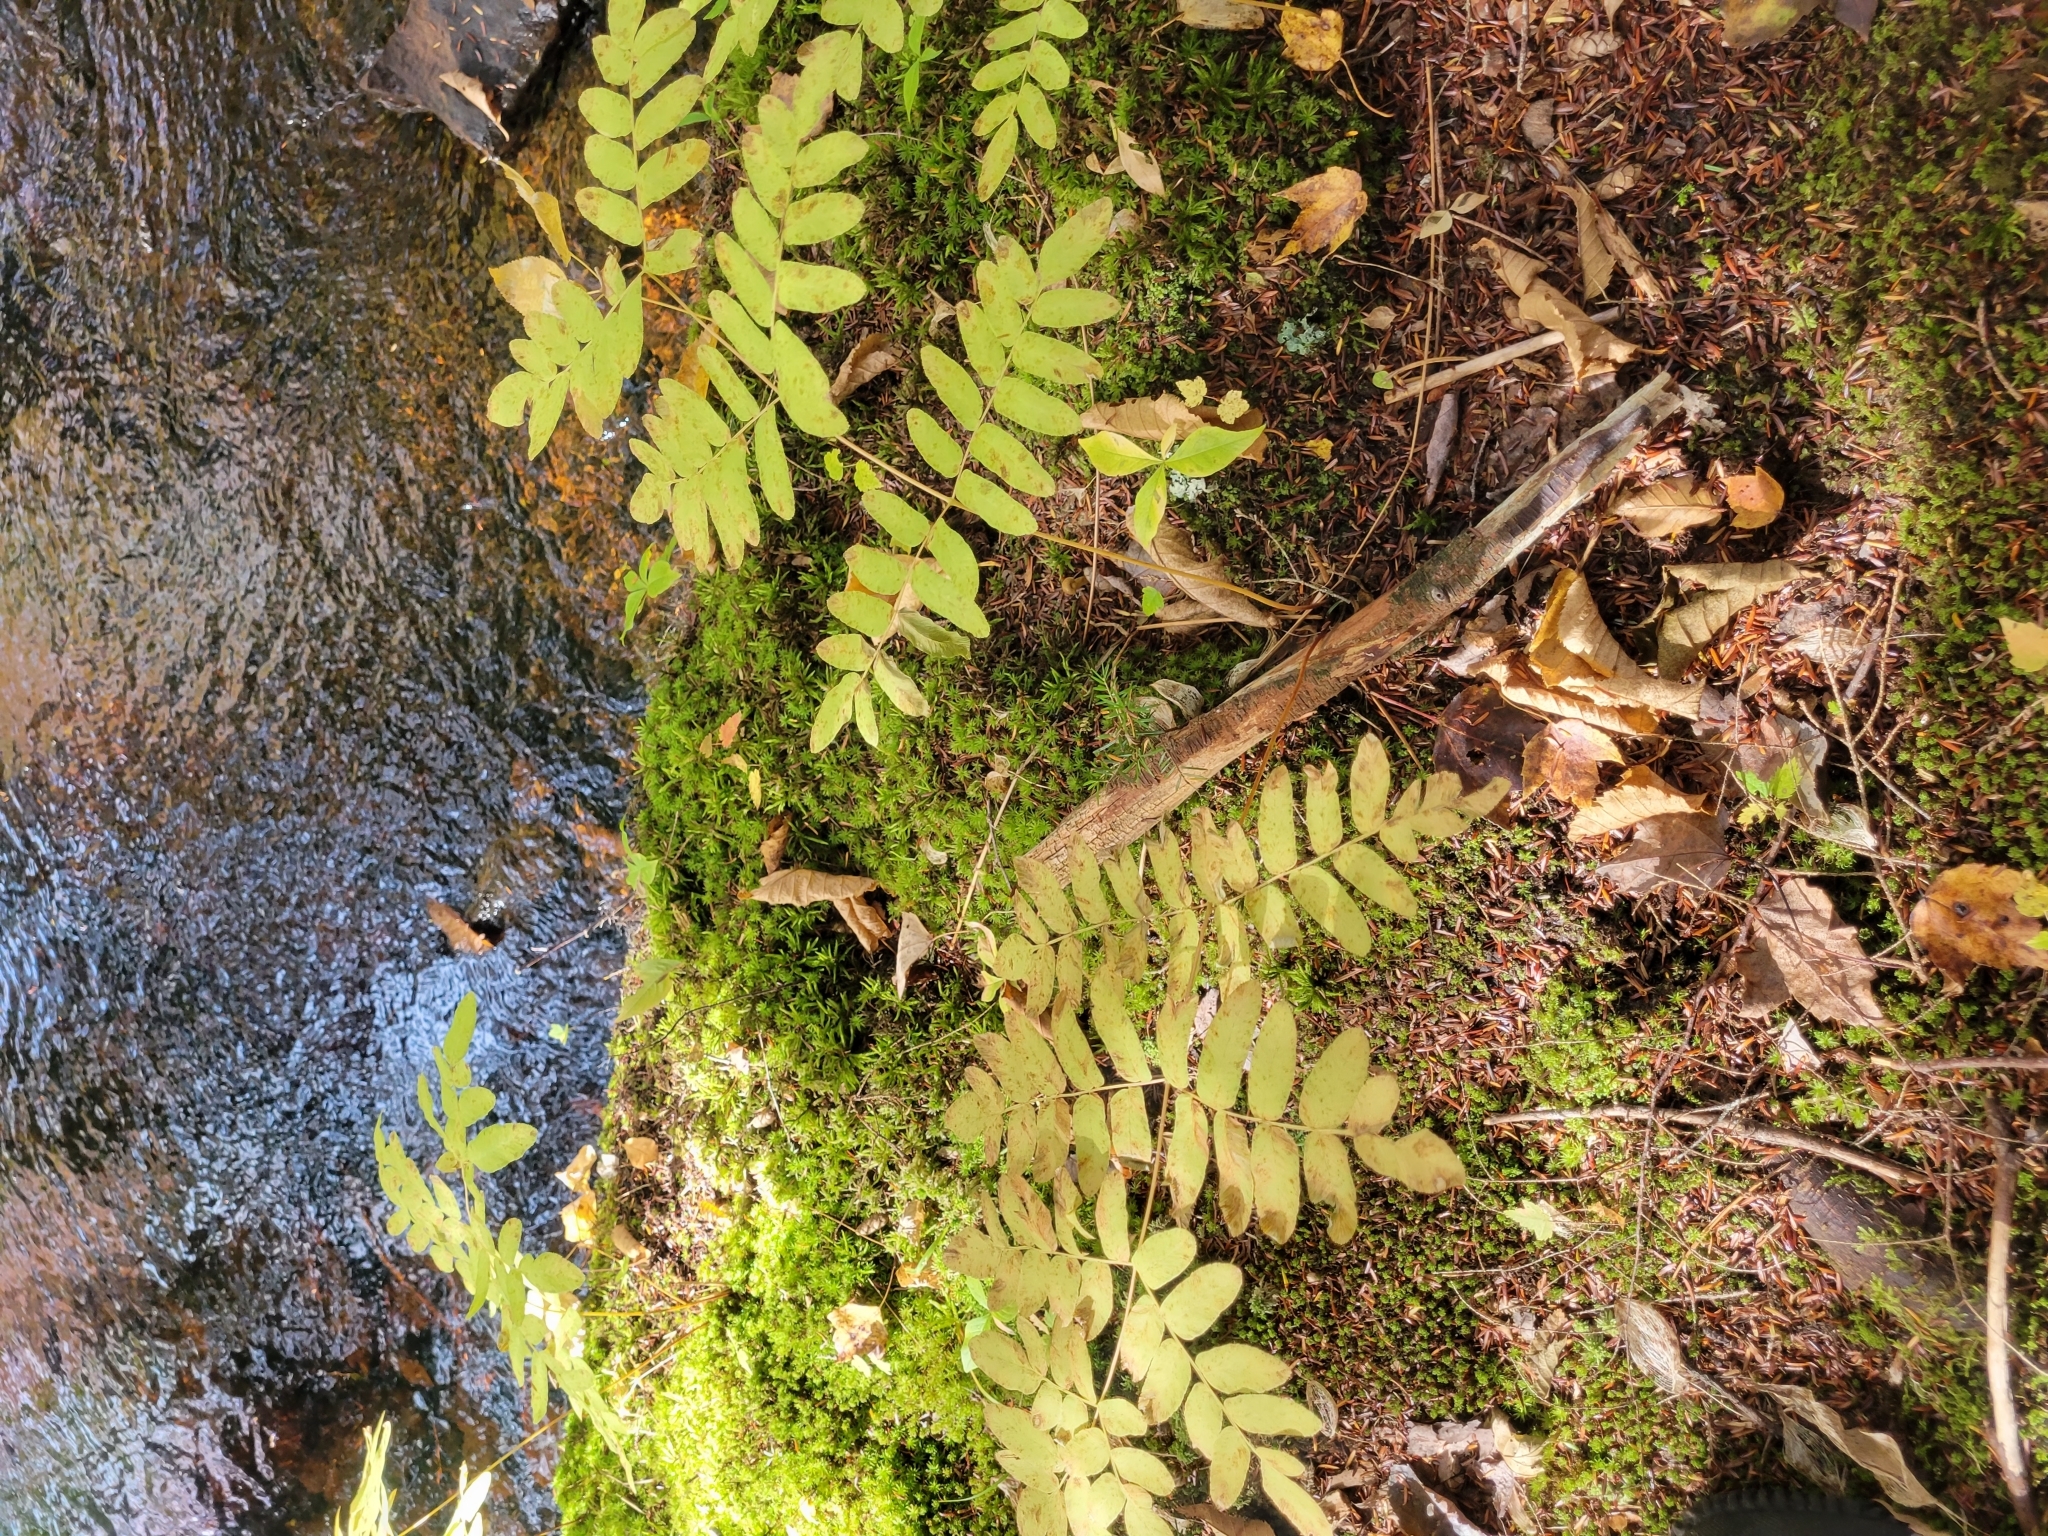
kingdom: Plantae
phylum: Tracheophyta
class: Polypodiopsida
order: Osmundales
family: Osmundaceae
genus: Osmunda
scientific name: Osmunda spectabilis
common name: American royal fern
